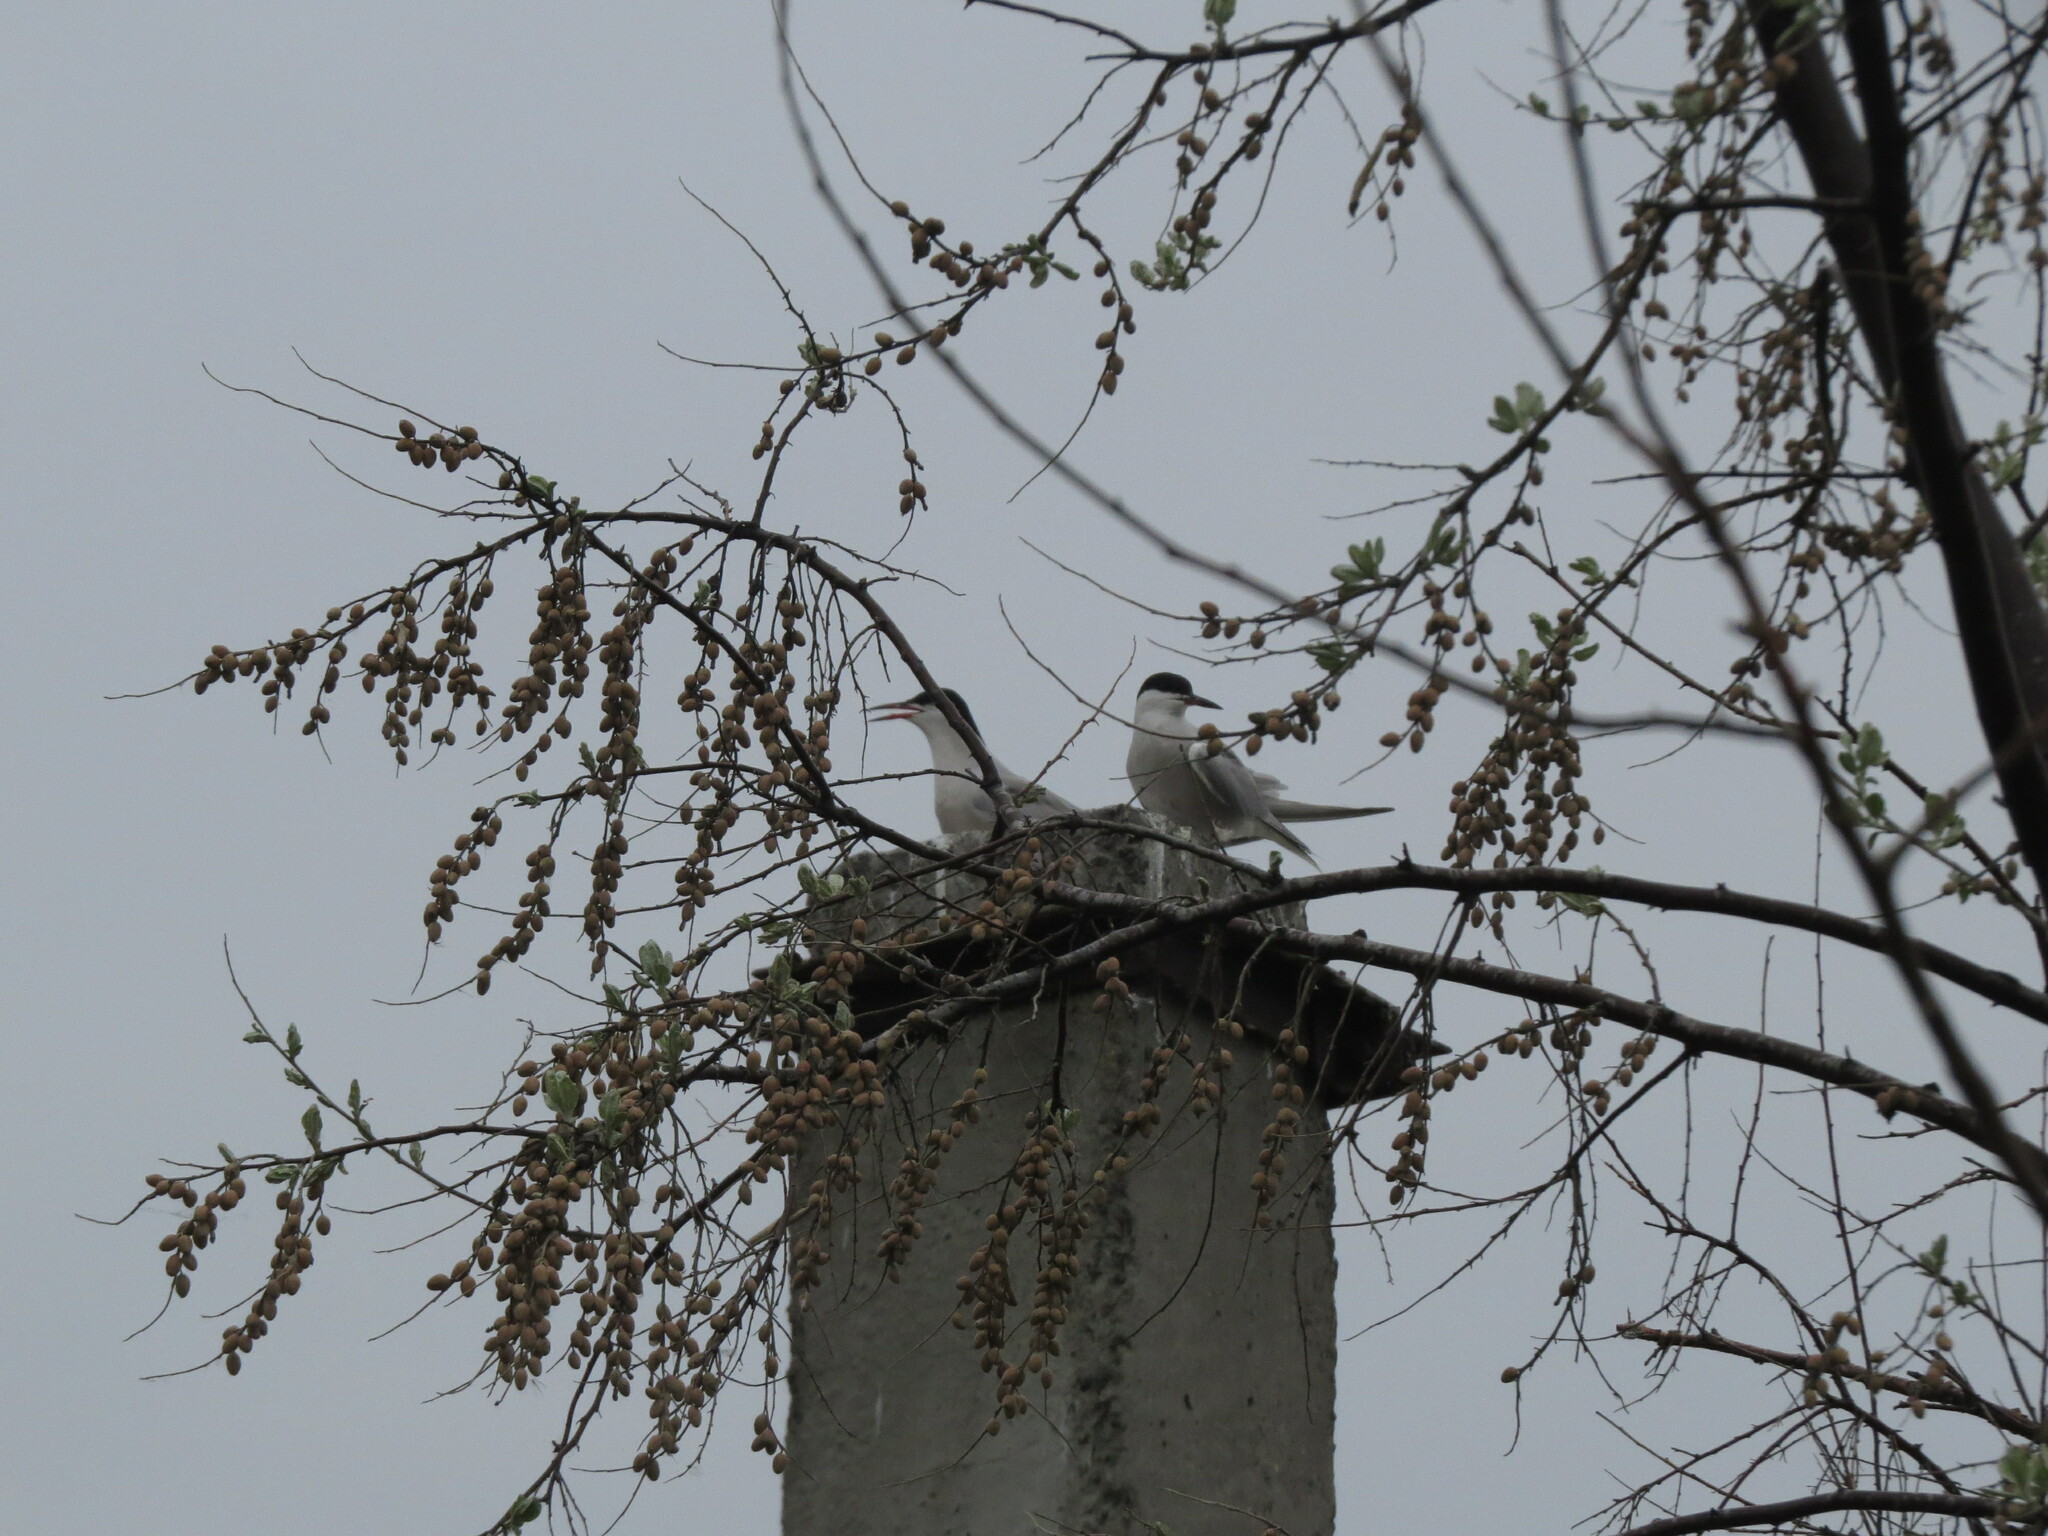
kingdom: Animalia
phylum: Chordata
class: Aves
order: Charadriiformes
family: Laridae
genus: Sterna
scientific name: Sterna hirundo
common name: Common tern
